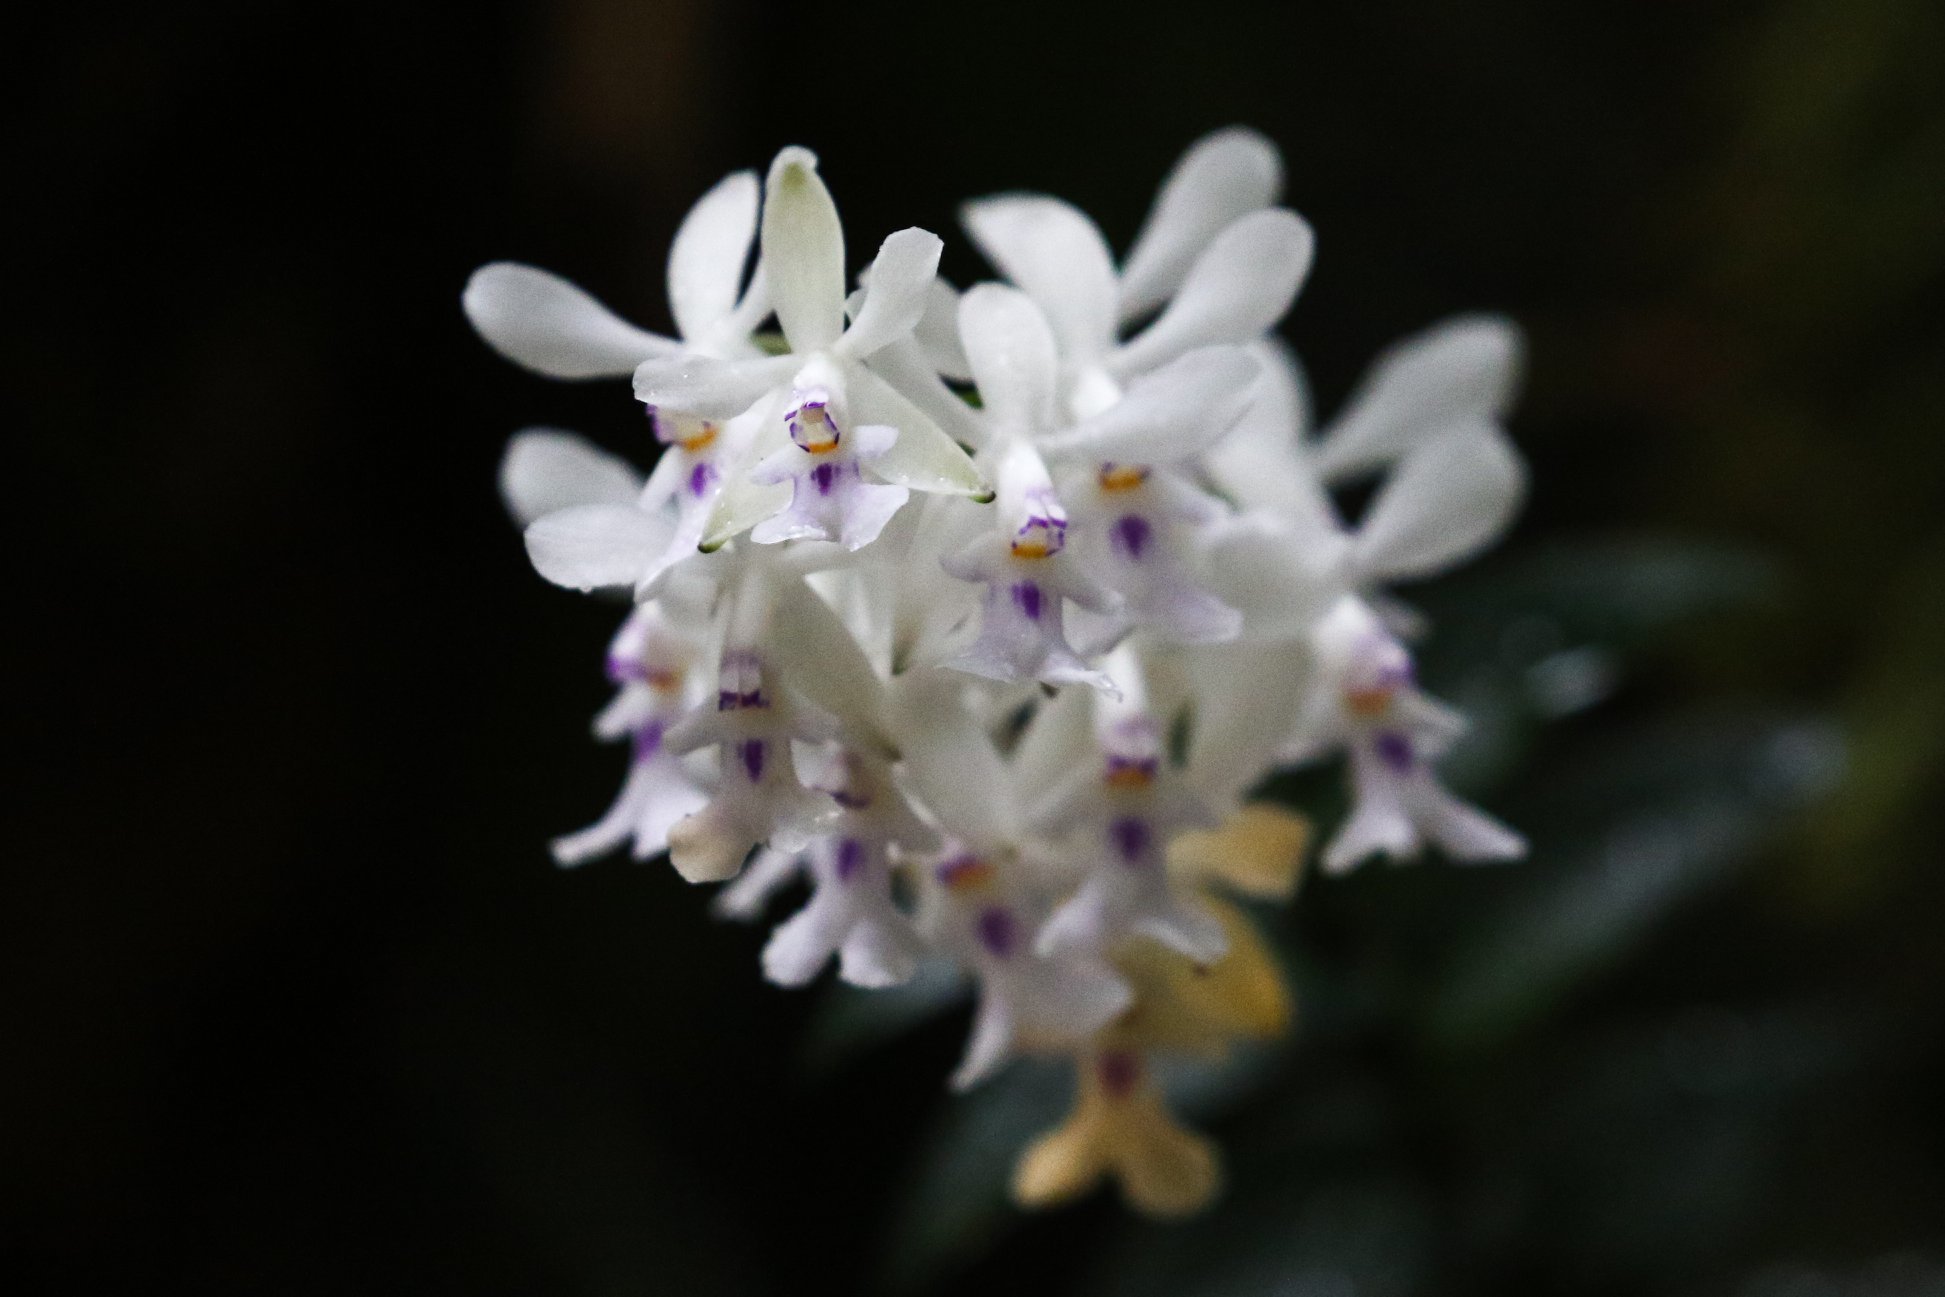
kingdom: Plantae
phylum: Tracheophyta
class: Liliopsida
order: Asparagales
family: Orchidaceae
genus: Epidendrum
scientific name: Epidendrum endresii
